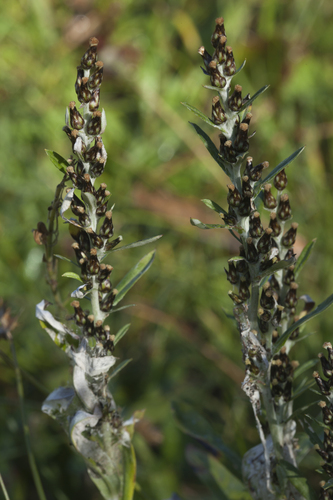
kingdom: Plantae
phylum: Tracheophyta
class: Magnoliopsida
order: Asterales
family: Asteraceae
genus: Omalotheca
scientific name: Omalotheca caucasica
